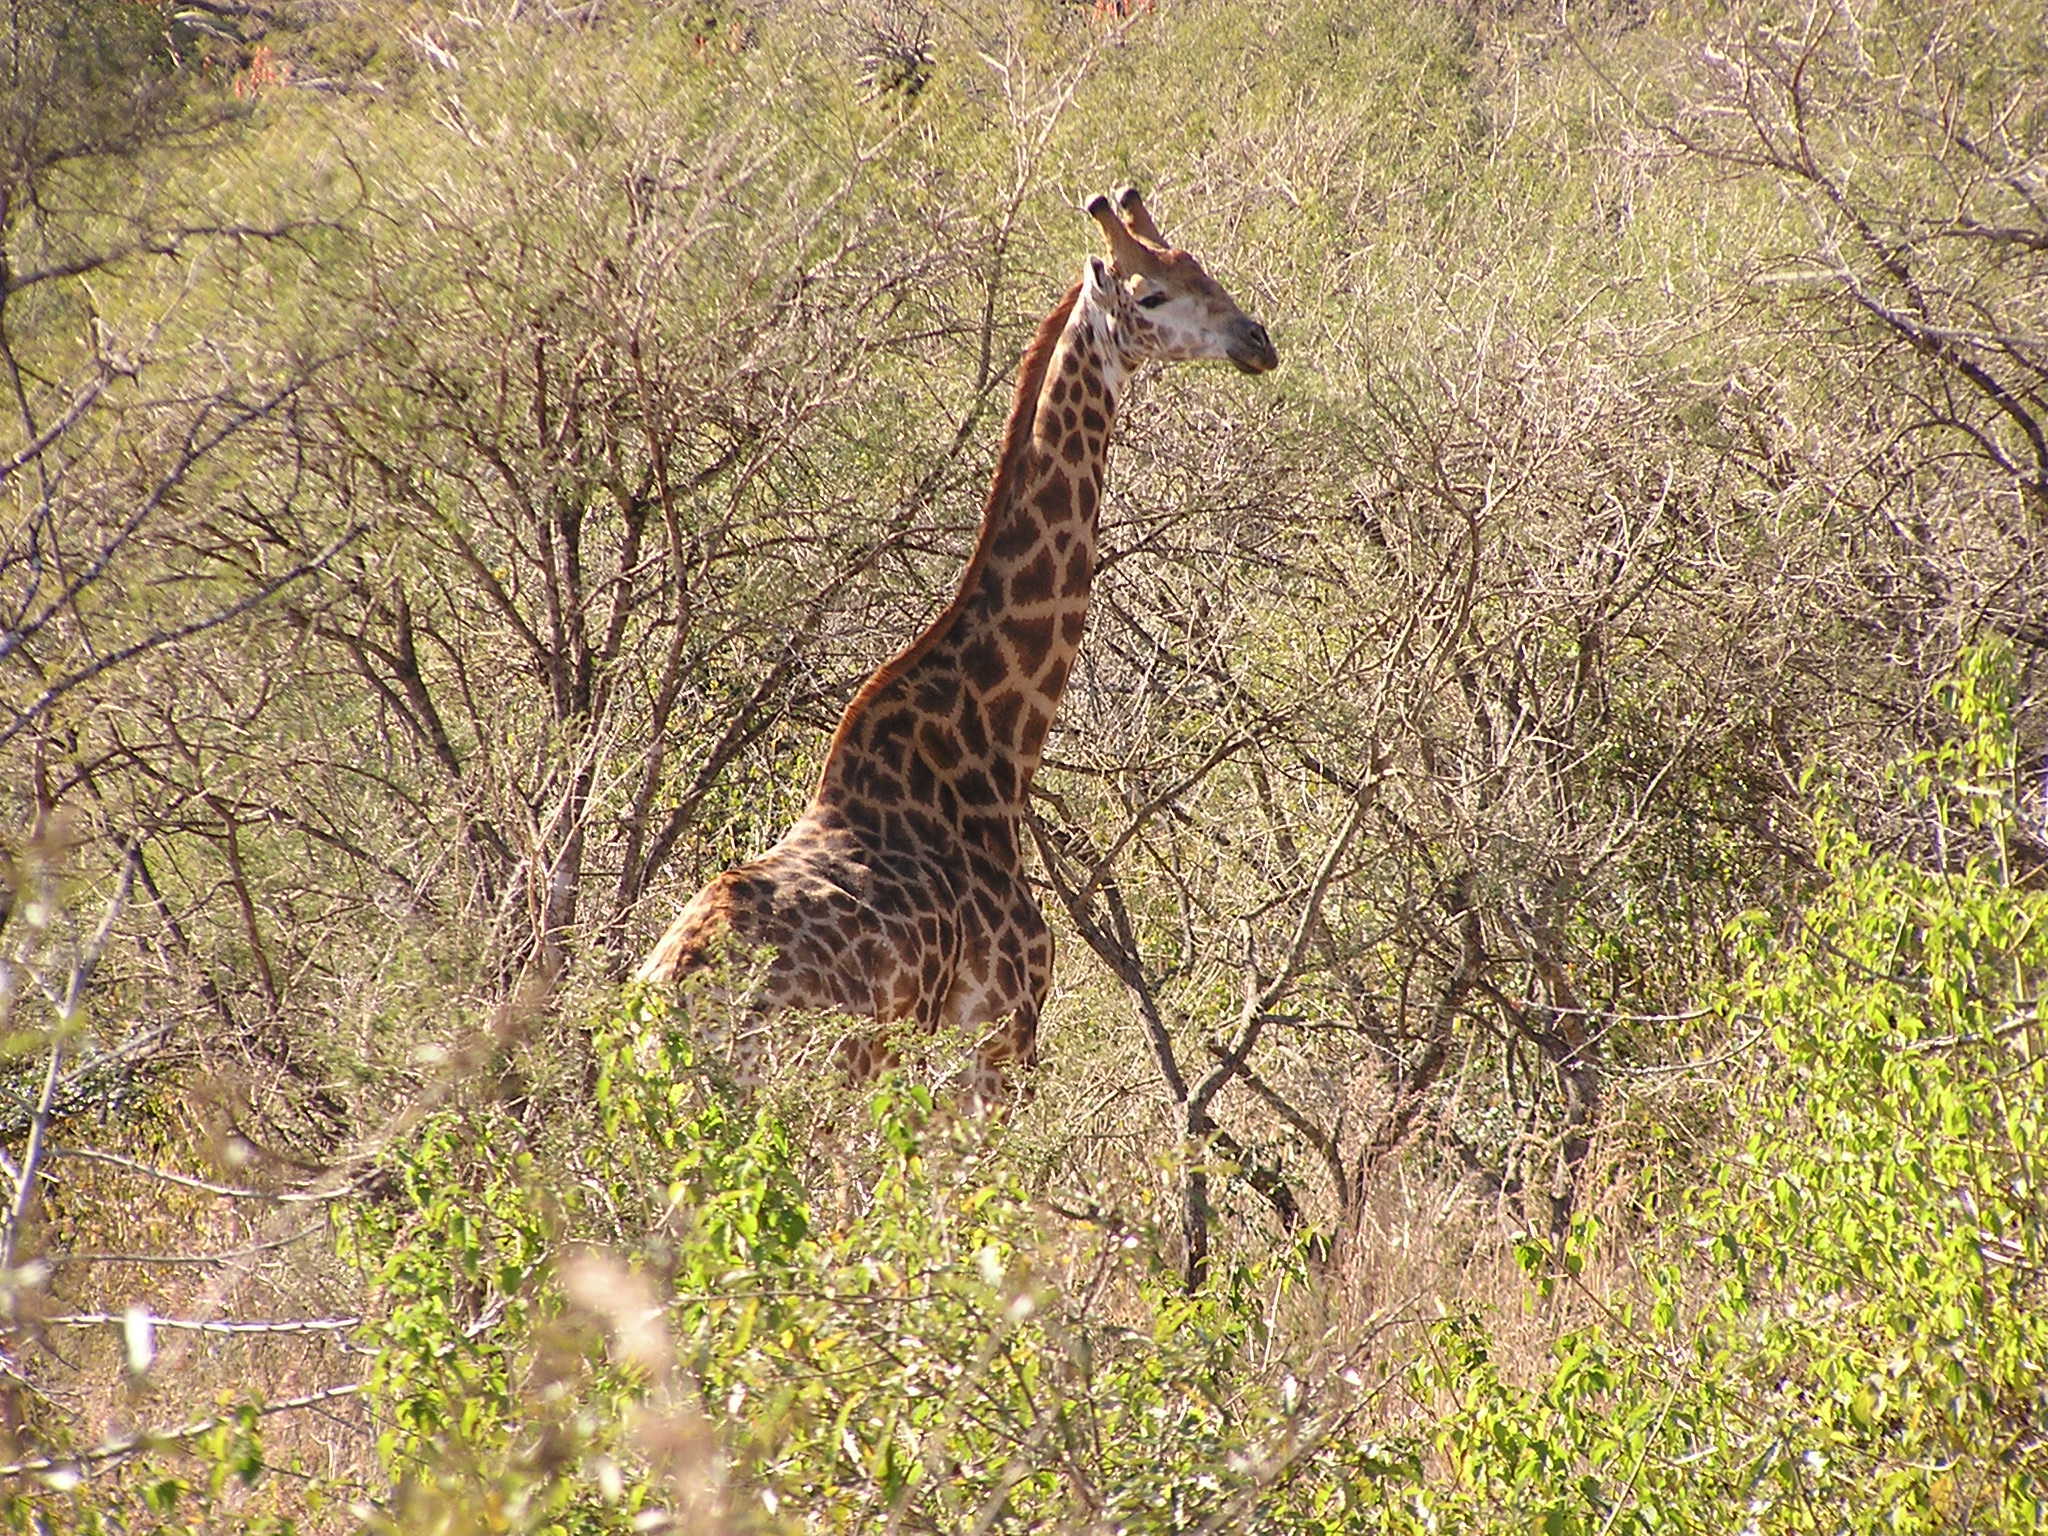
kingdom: Animalia
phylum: Chordata
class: Mammalia
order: Artiodactyla
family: Giraffidae
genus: Giraffa
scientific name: Giraffa giraffa
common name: Southern giraffe
